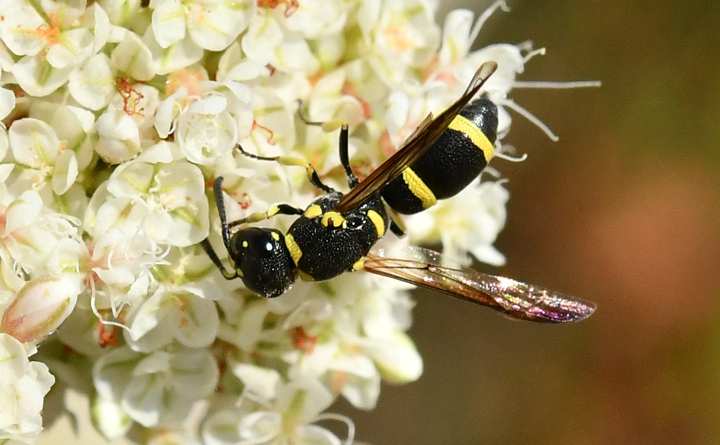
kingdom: Animalia
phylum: Arthropoda
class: Insecta
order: Hymenoptera
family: Eumenidae
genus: Parancistrocerus
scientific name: Parancistrocerus declivatus
